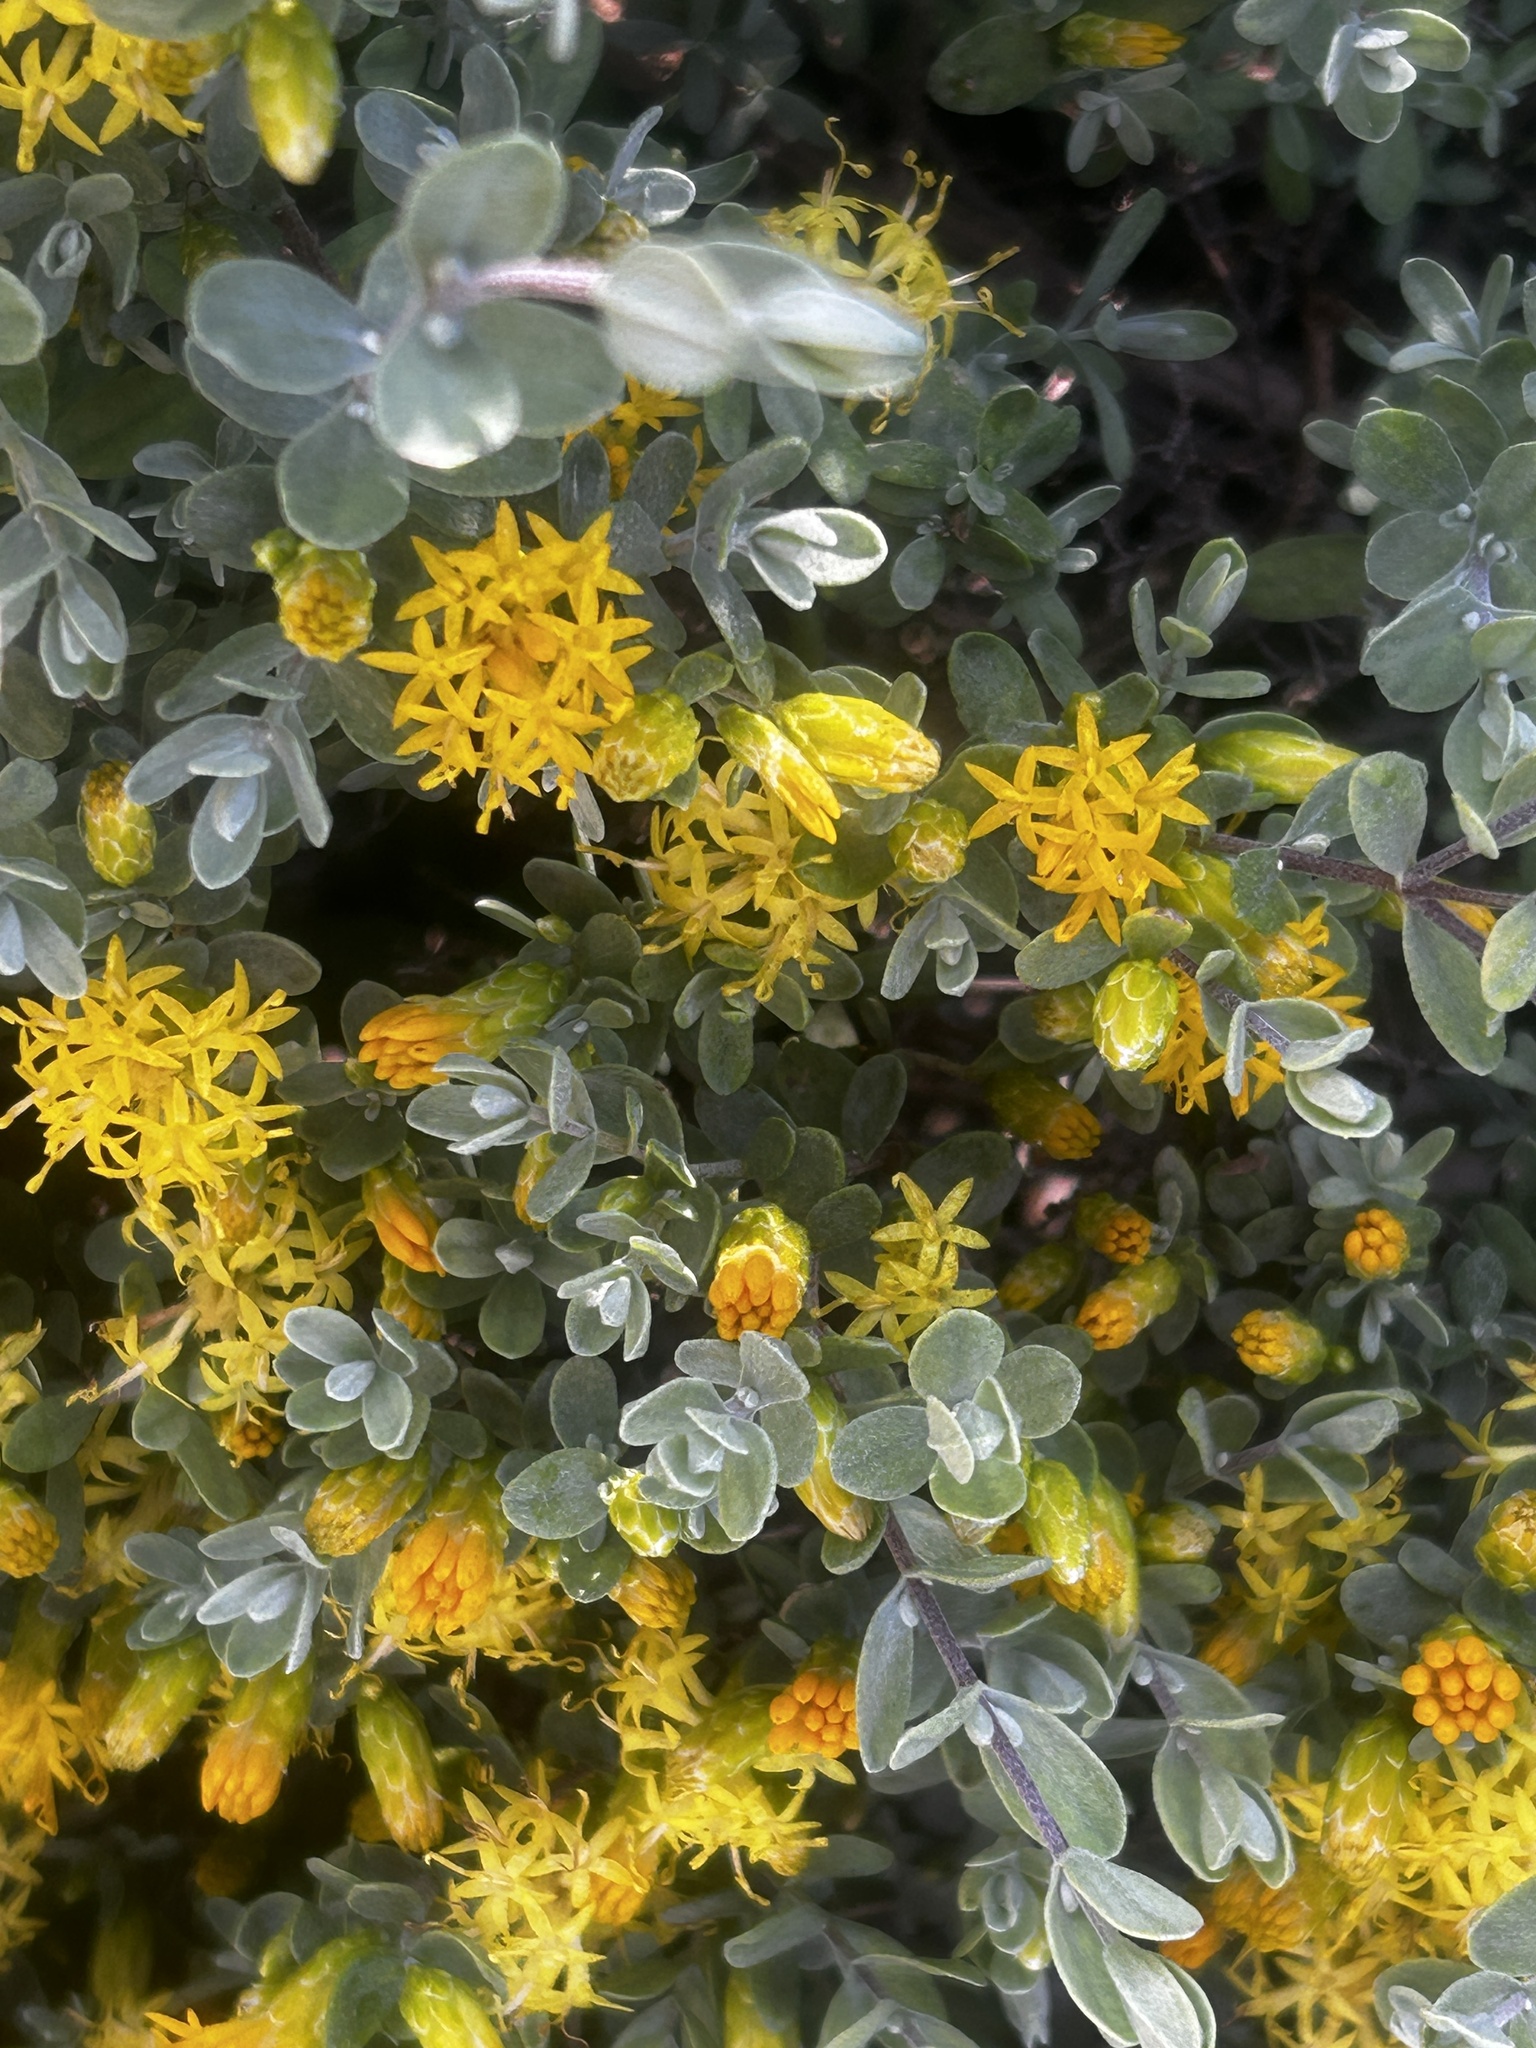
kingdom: Plantae
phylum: Tracheophyta
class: Magnoliopsida
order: Asterales
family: Asteraceae
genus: Pteronia
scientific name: Pteronia incana
